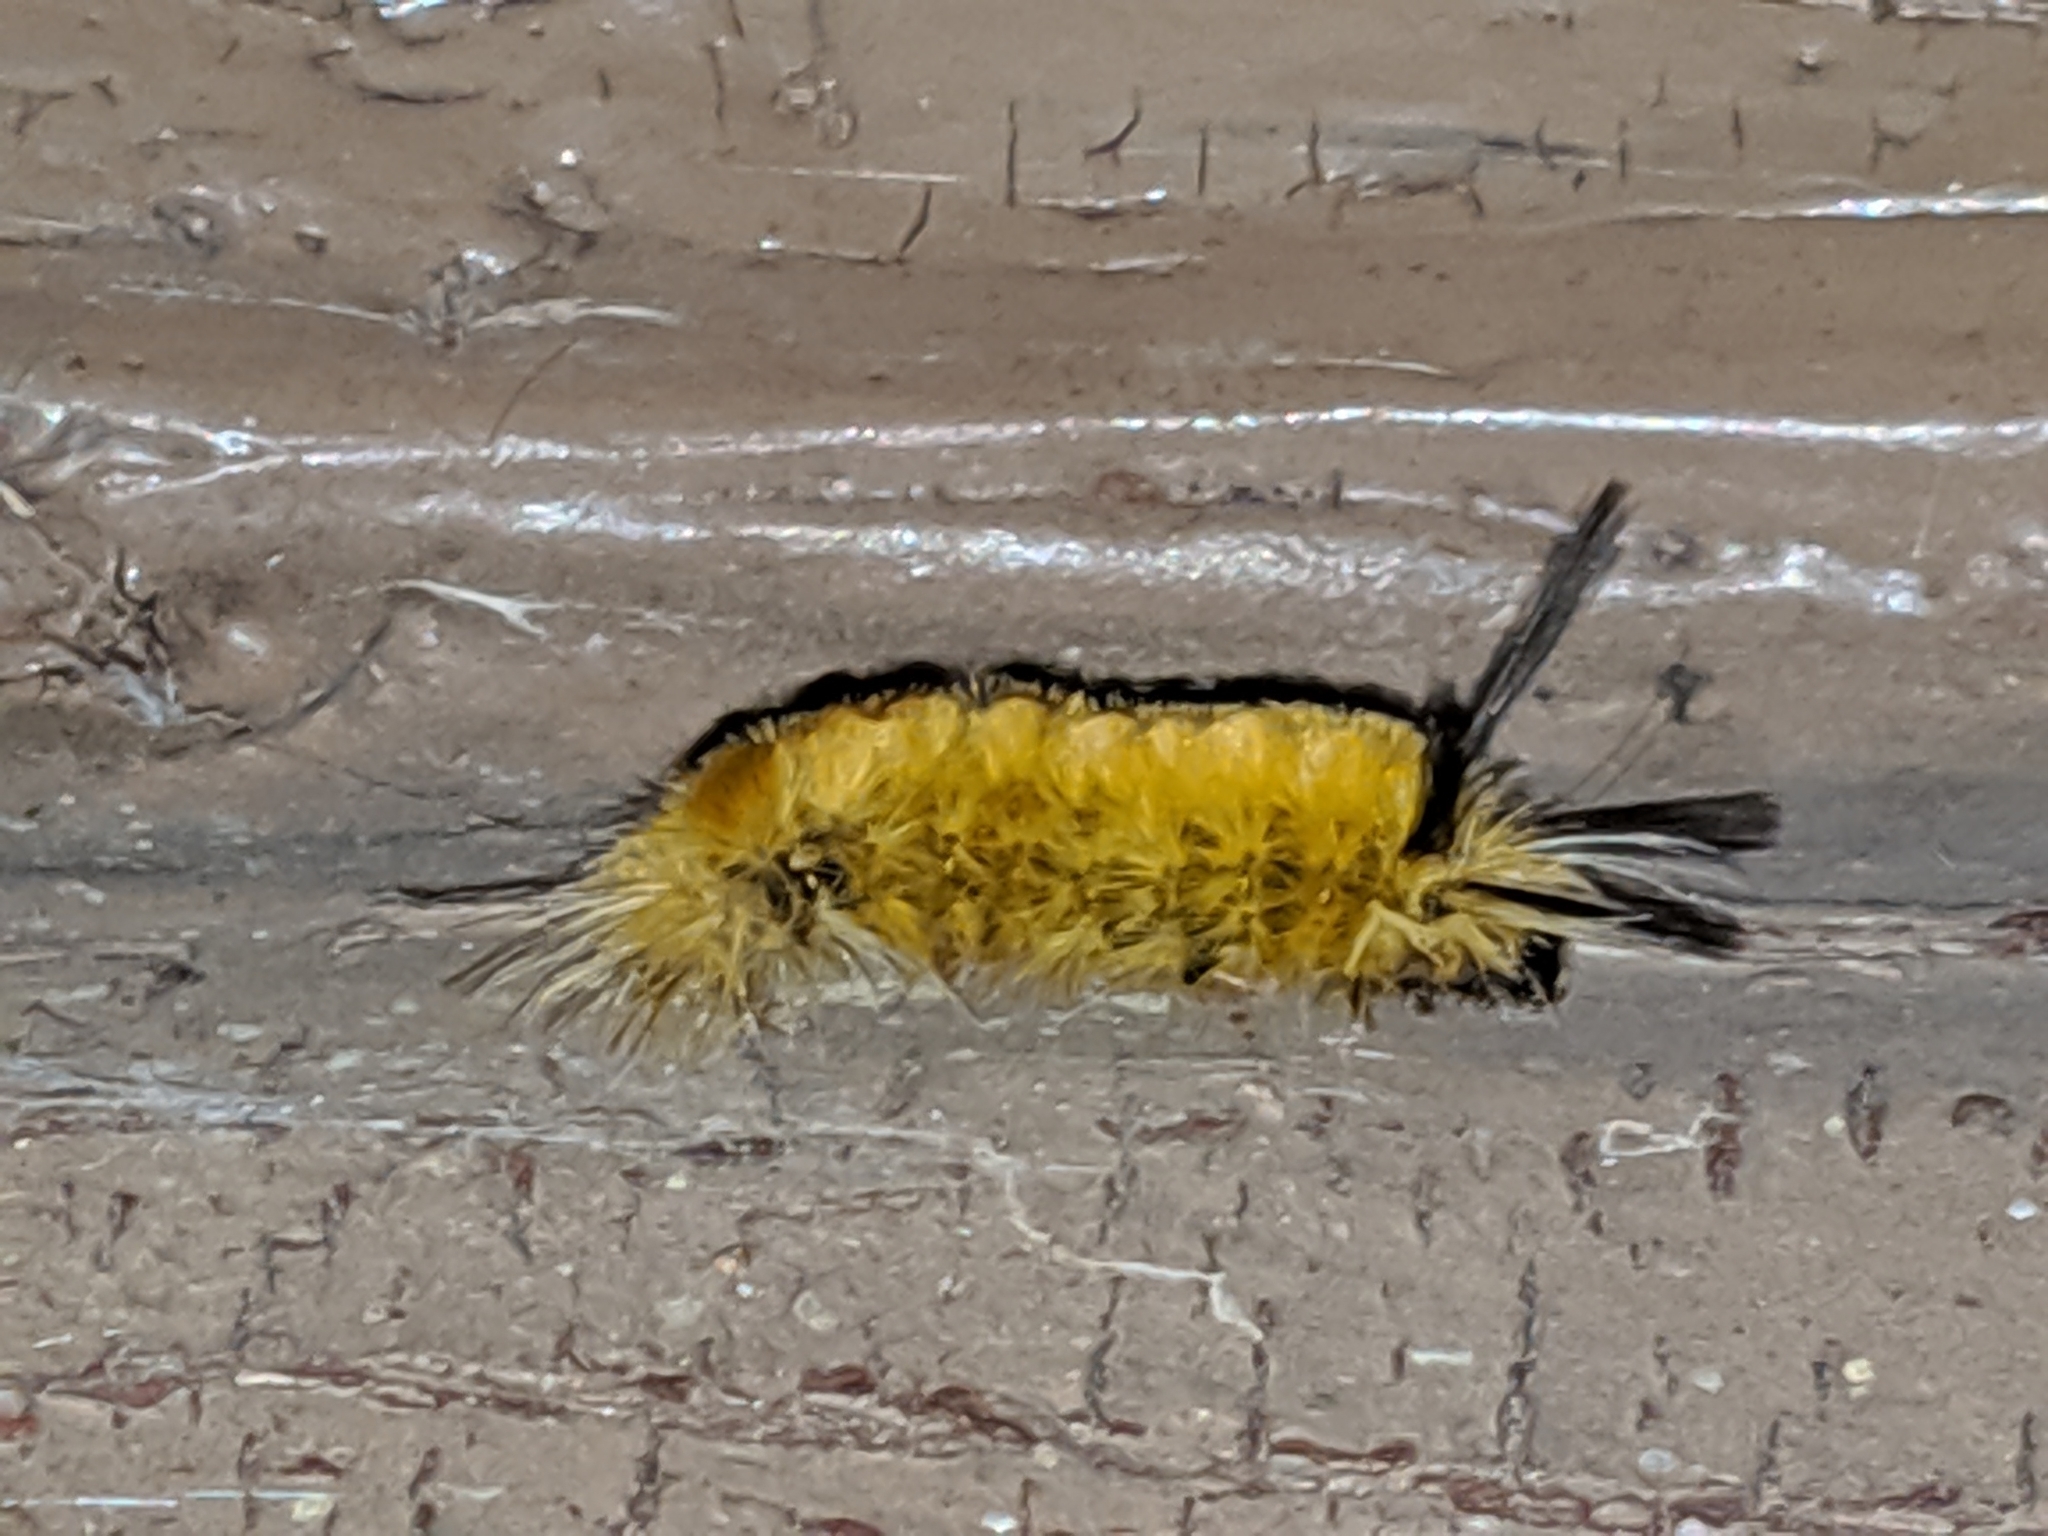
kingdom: Animalia
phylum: Arthropoda
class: Insecta
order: Lepidoptera
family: Erebidae
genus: Halysidota
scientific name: Halysidota tessellaris
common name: Banded tussock moth
